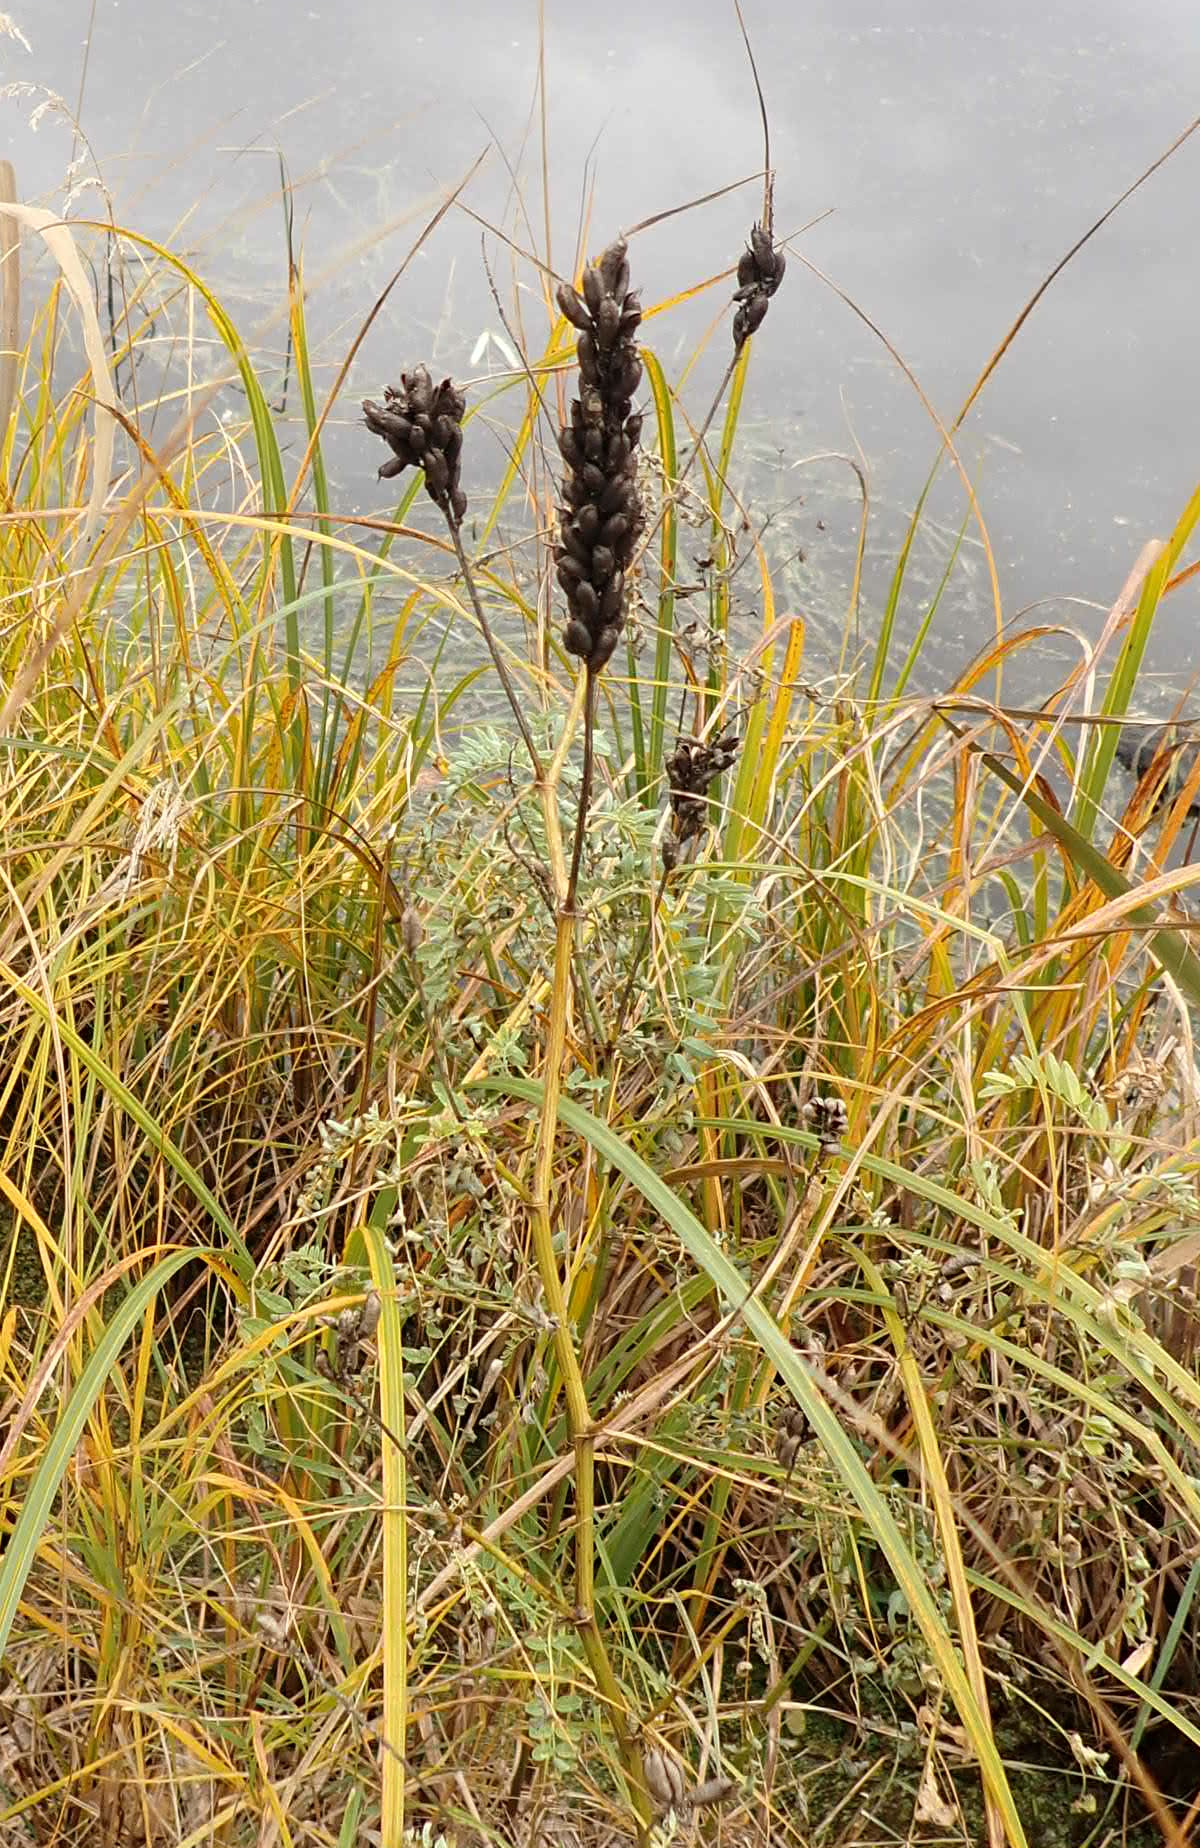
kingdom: Plantae
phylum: Tracheophyta
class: Magnoliopsida
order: Fabales
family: Fabaceae
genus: Astragalus
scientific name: Astragalus canadensis
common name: Canada milk-vetch
